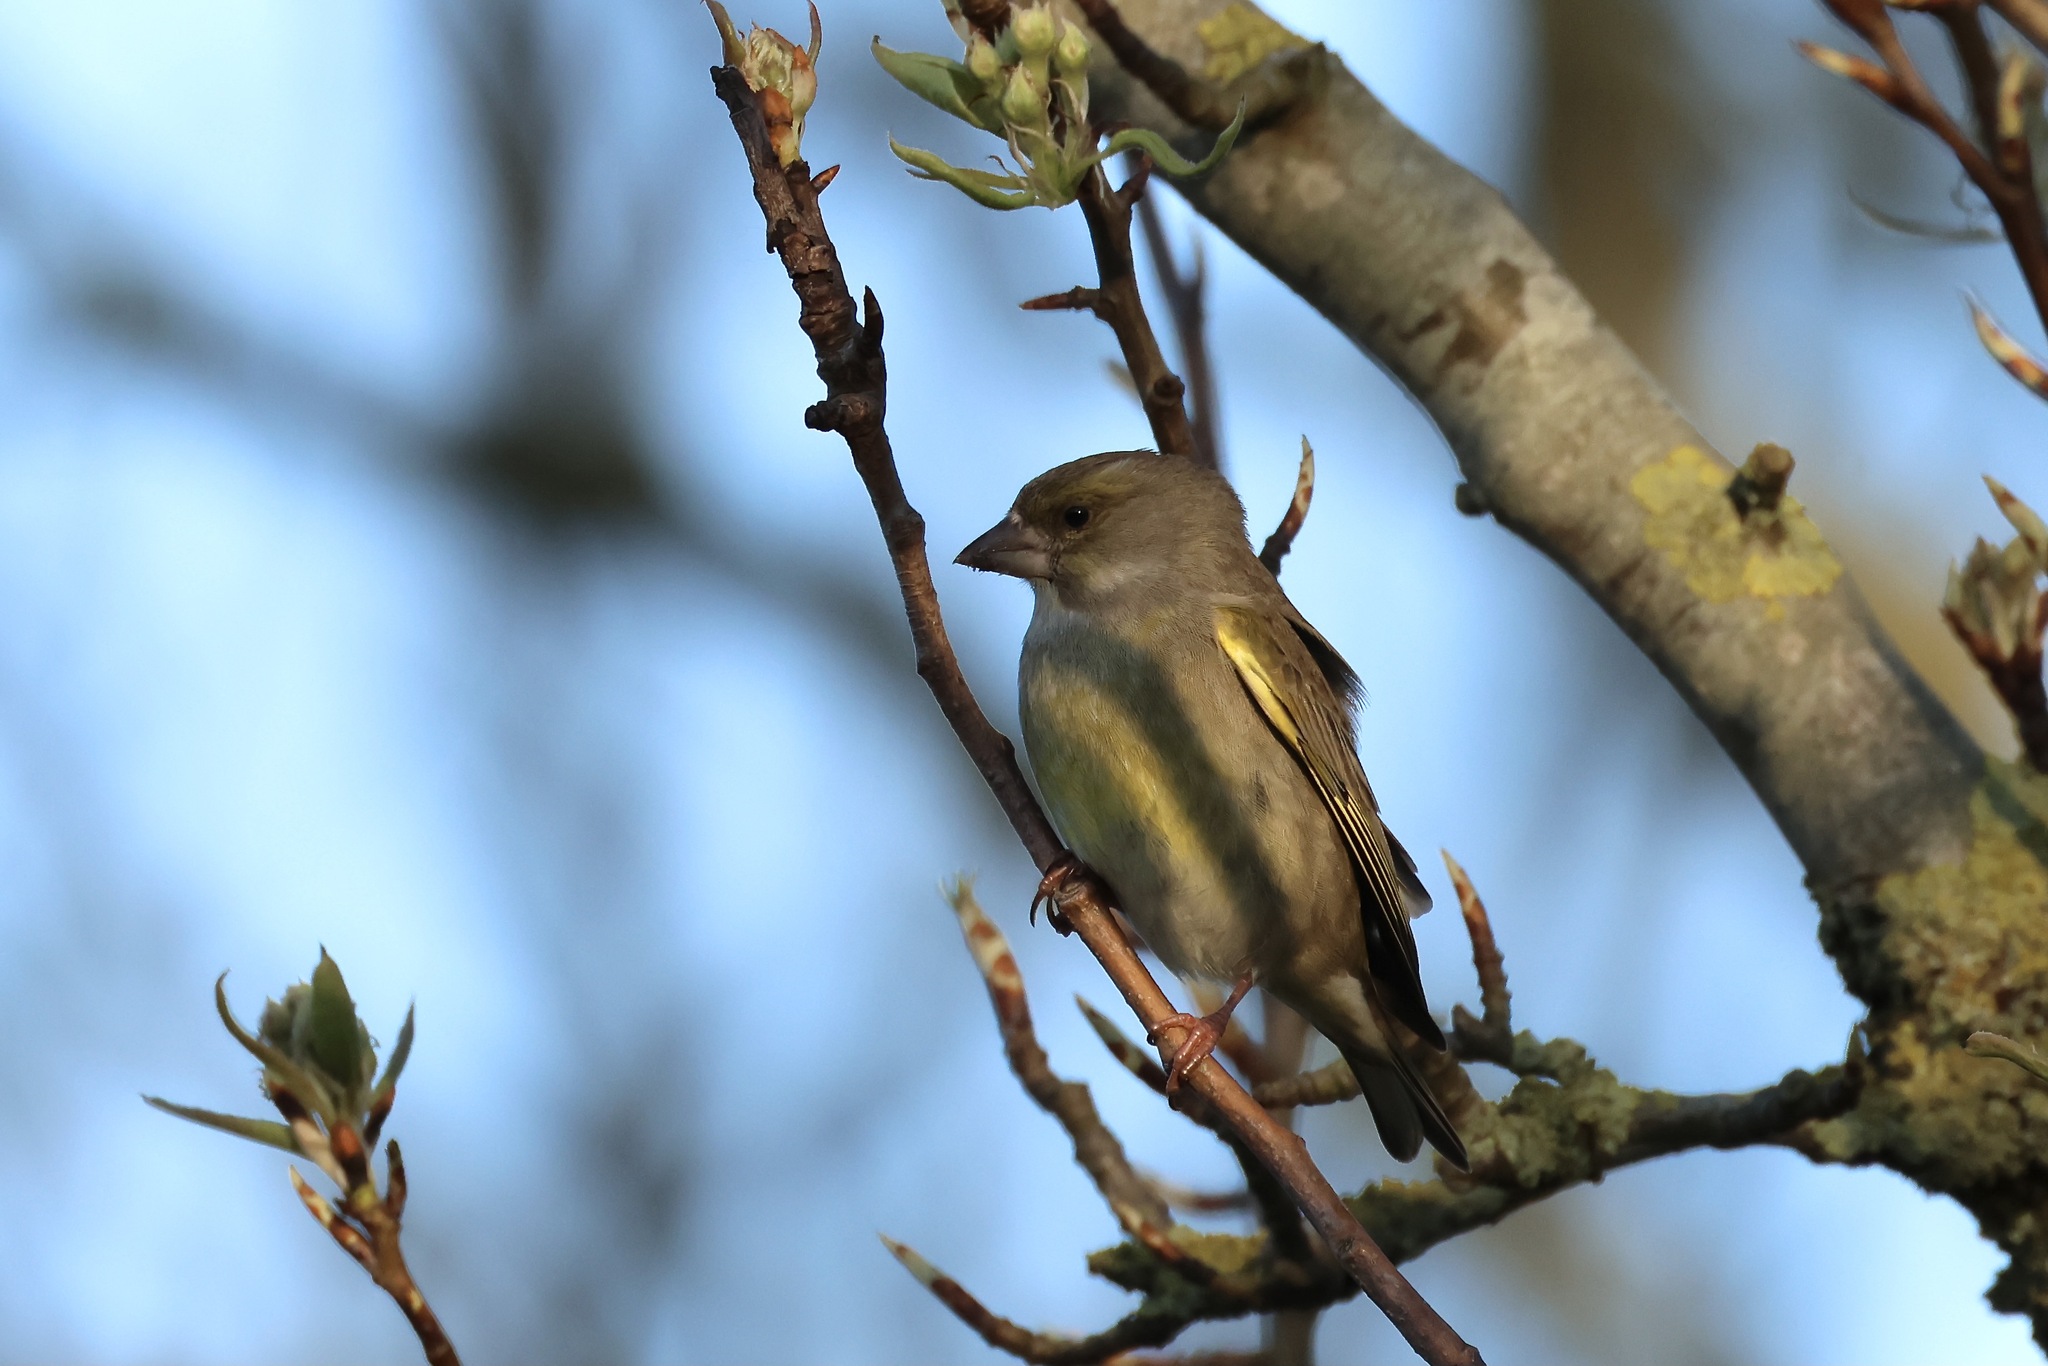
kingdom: Plantae
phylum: Tracheophyta
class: Liliopsida
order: Poales
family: Poaceae
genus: Chloris
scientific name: Chloris chloris
